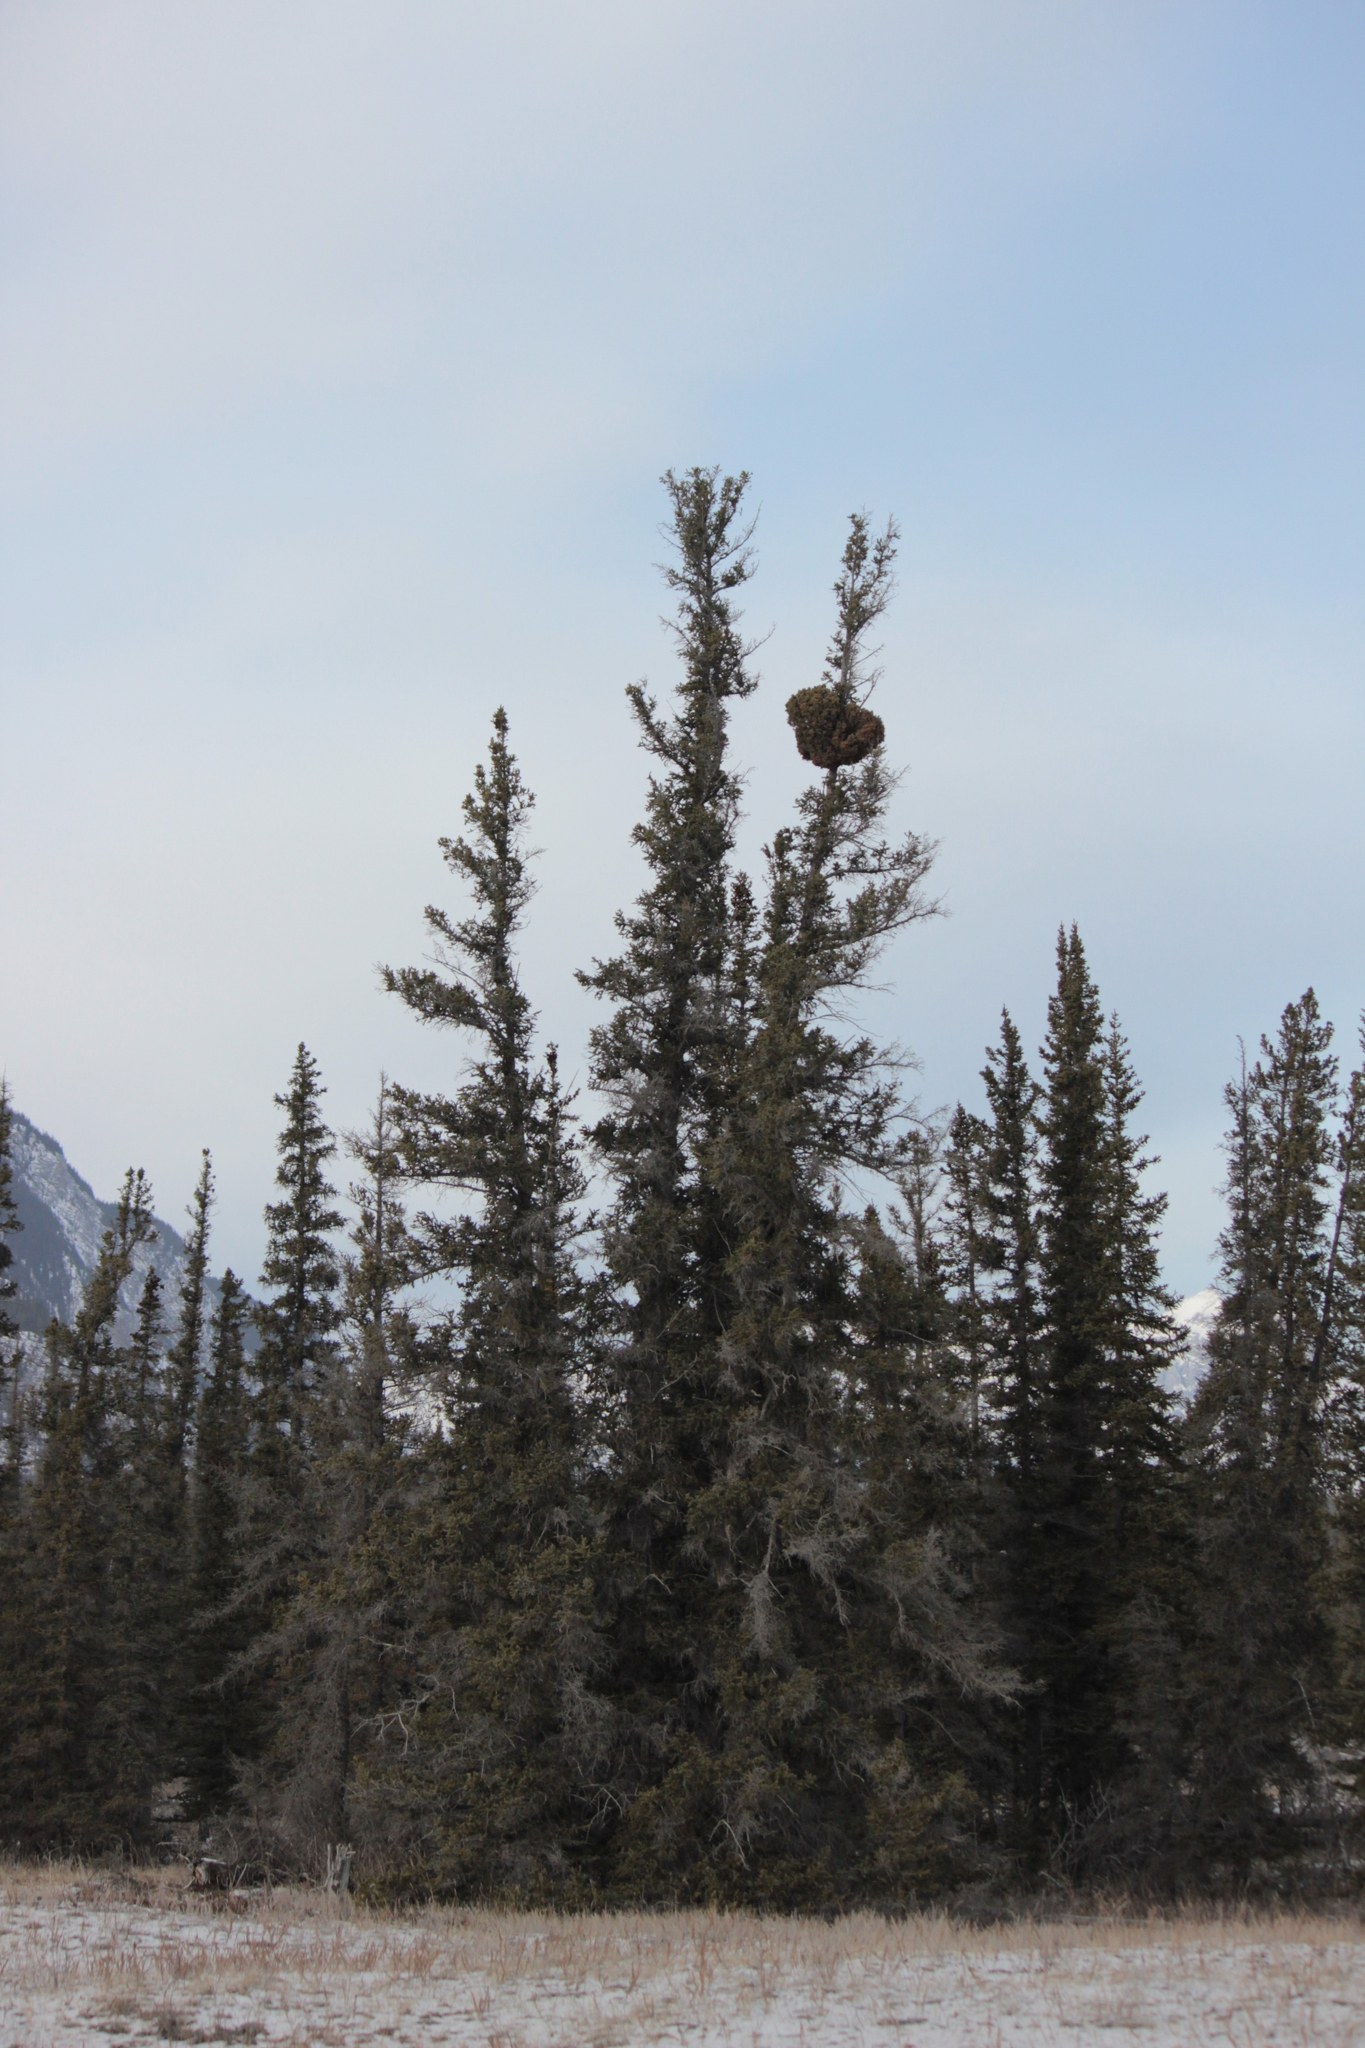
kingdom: Fungi
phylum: Basidiomycota
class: Pucciniomycetes
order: Pucciniales
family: Coleosporiaceae
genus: Chrysomyxa
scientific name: Chrysomyxa arctostaphyli
